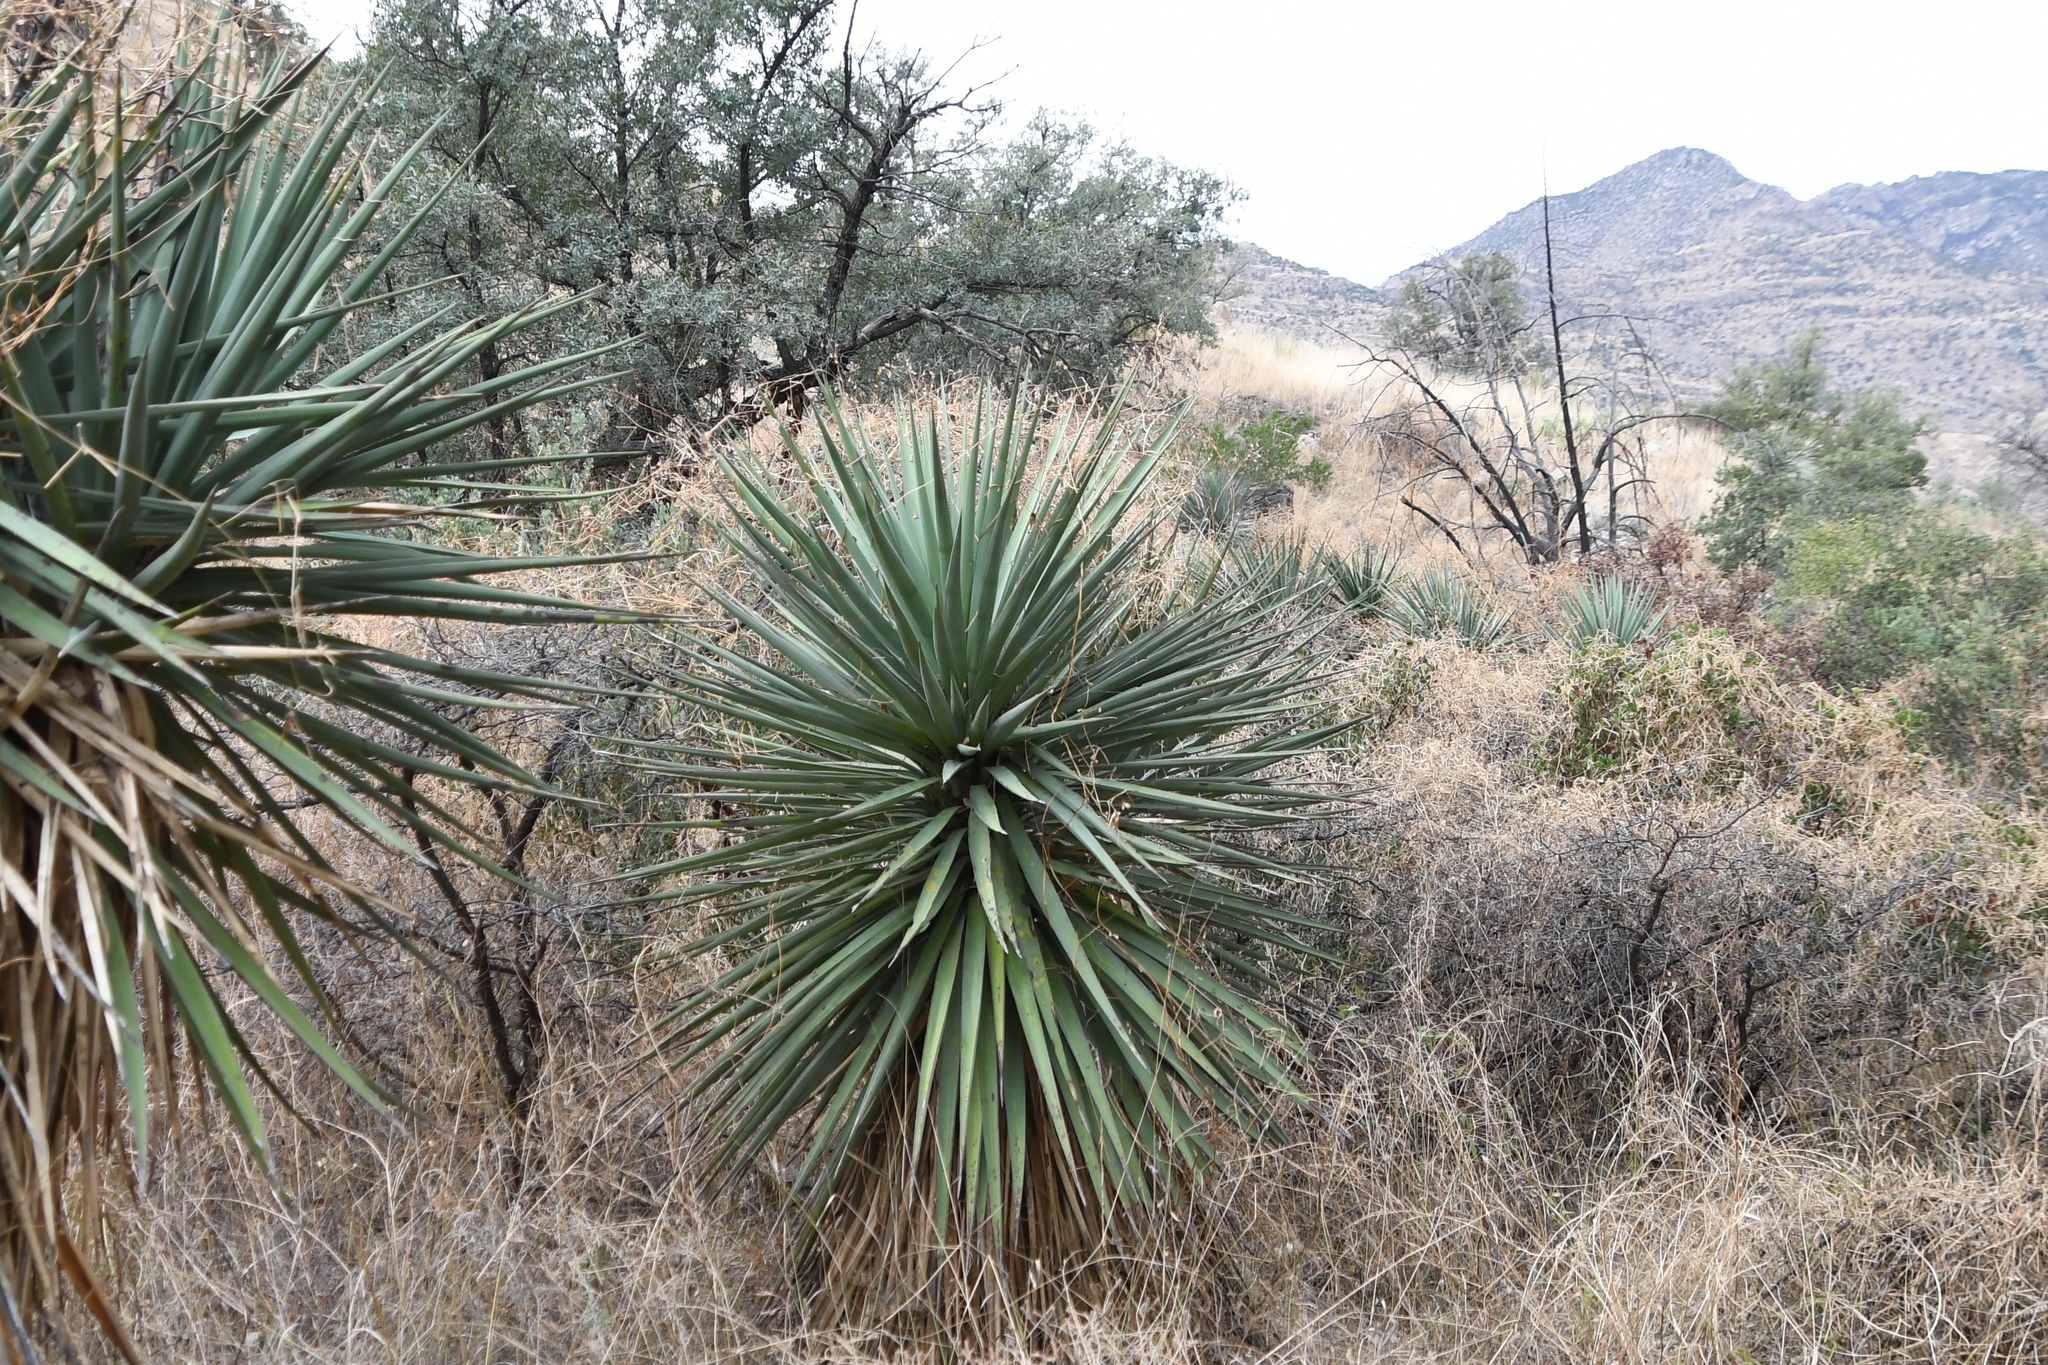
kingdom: Plantae
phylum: Tracheophyta
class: Liliopsida
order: Asparagales
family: Asparagaceae
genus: Yucca
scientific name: Yucca madrensis
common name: Hoary yucca
